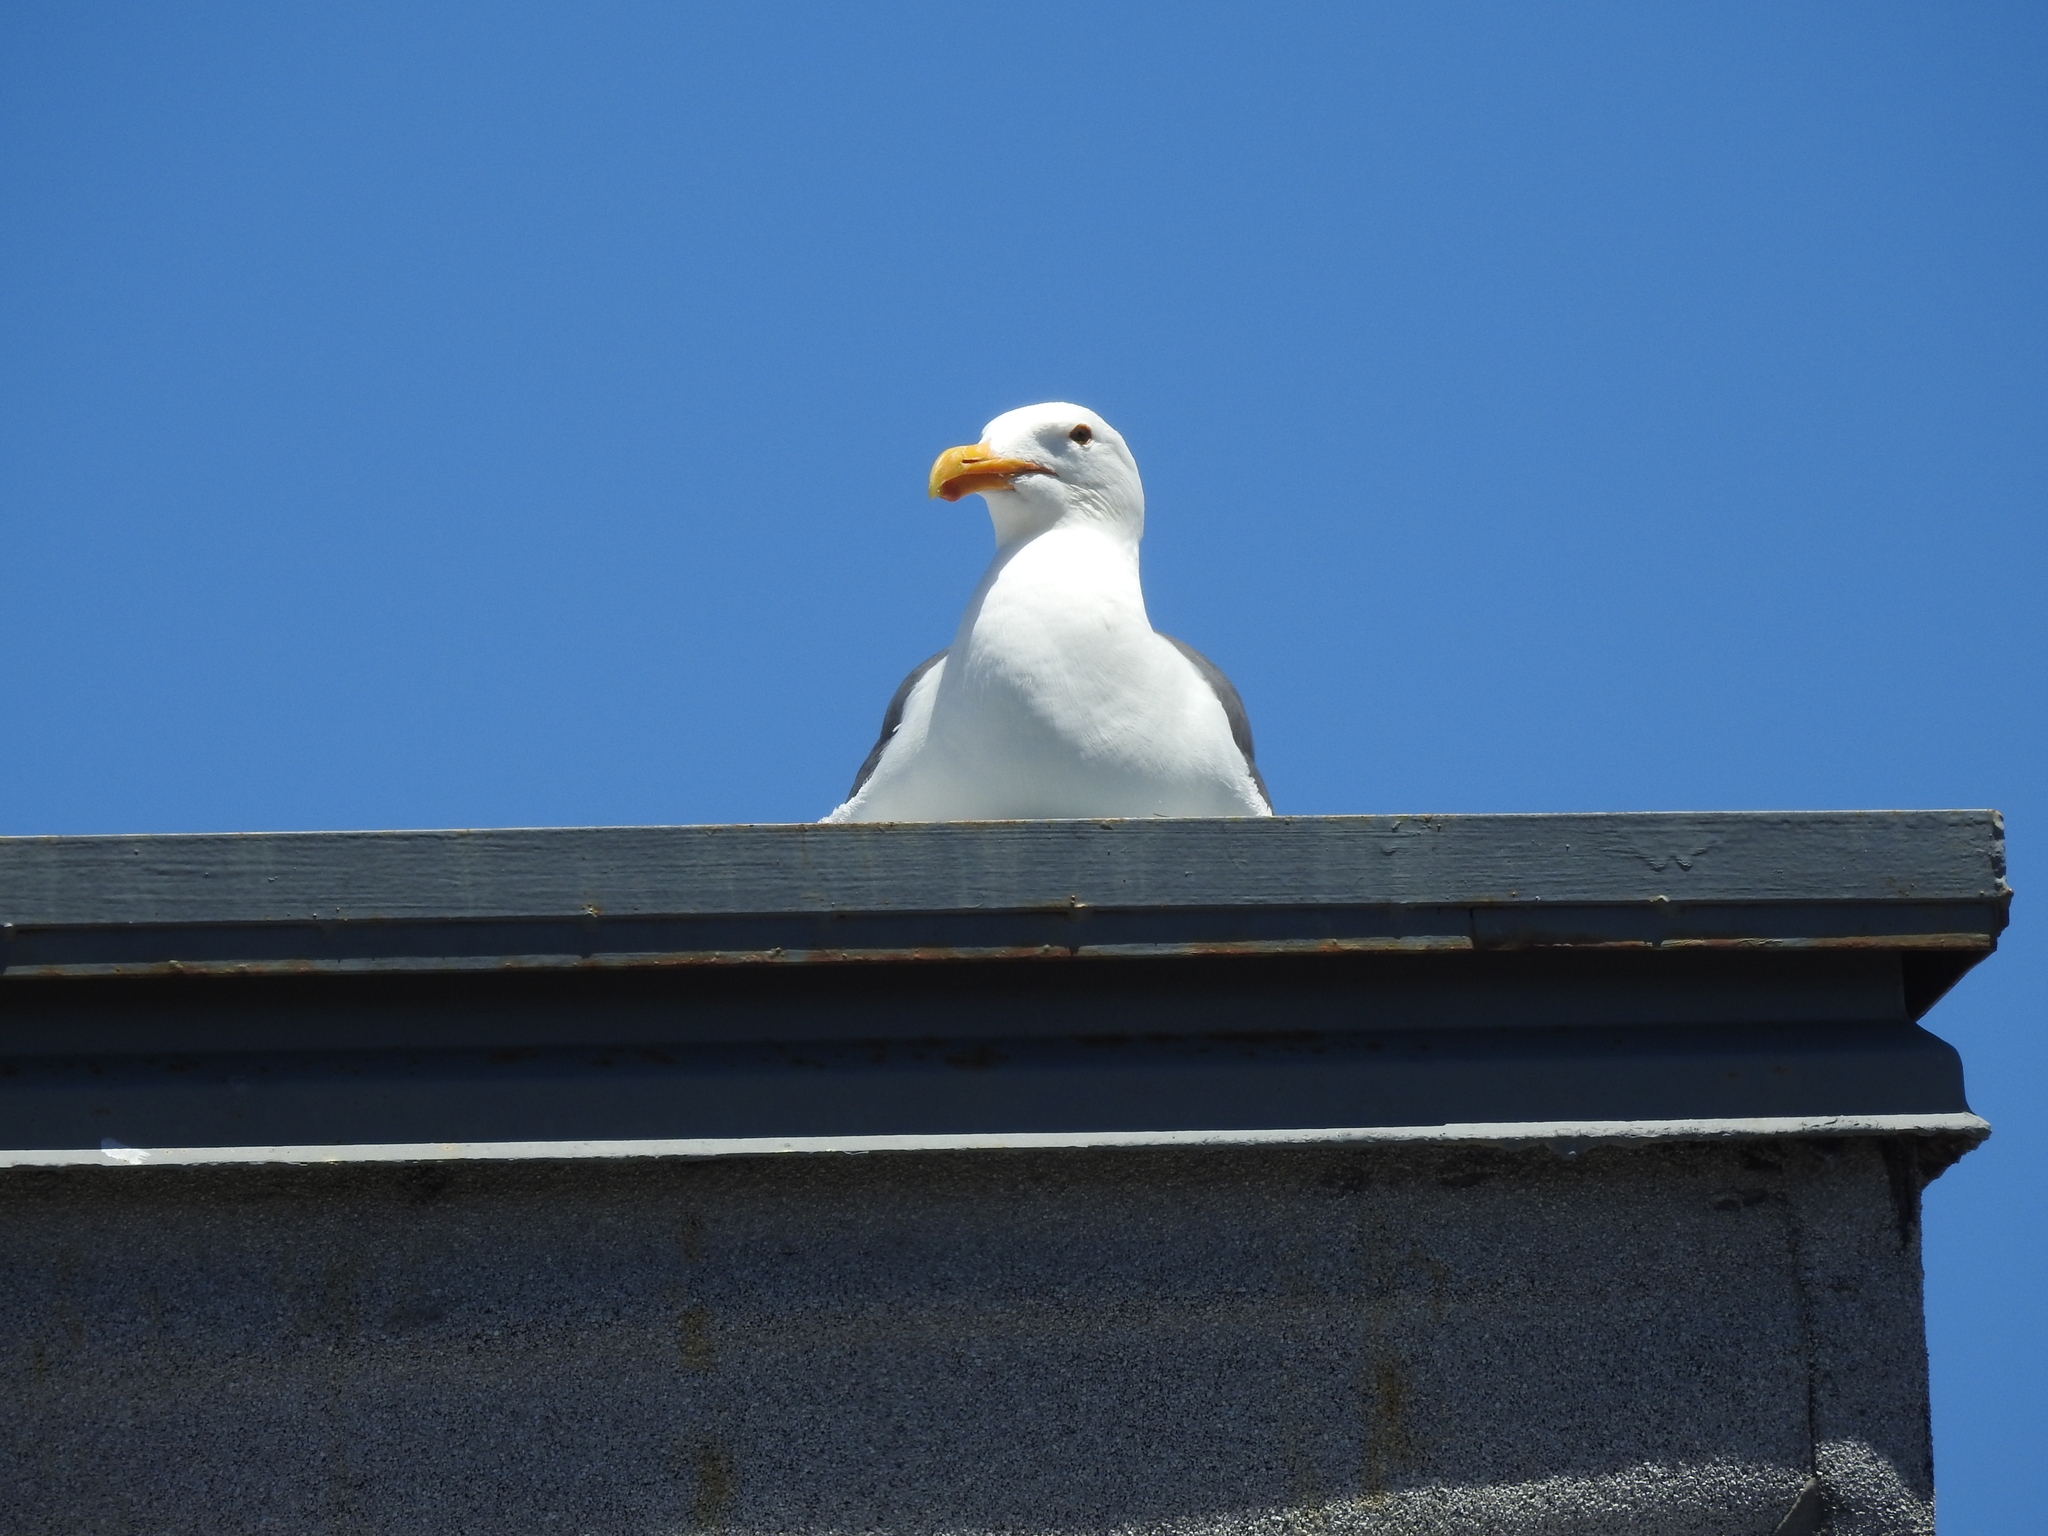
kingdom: Animalia
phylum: Chordata
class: Aves
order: Charadriiformes
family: Laridae
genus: Larus
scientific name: Larus occidentalis
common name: Western gull
